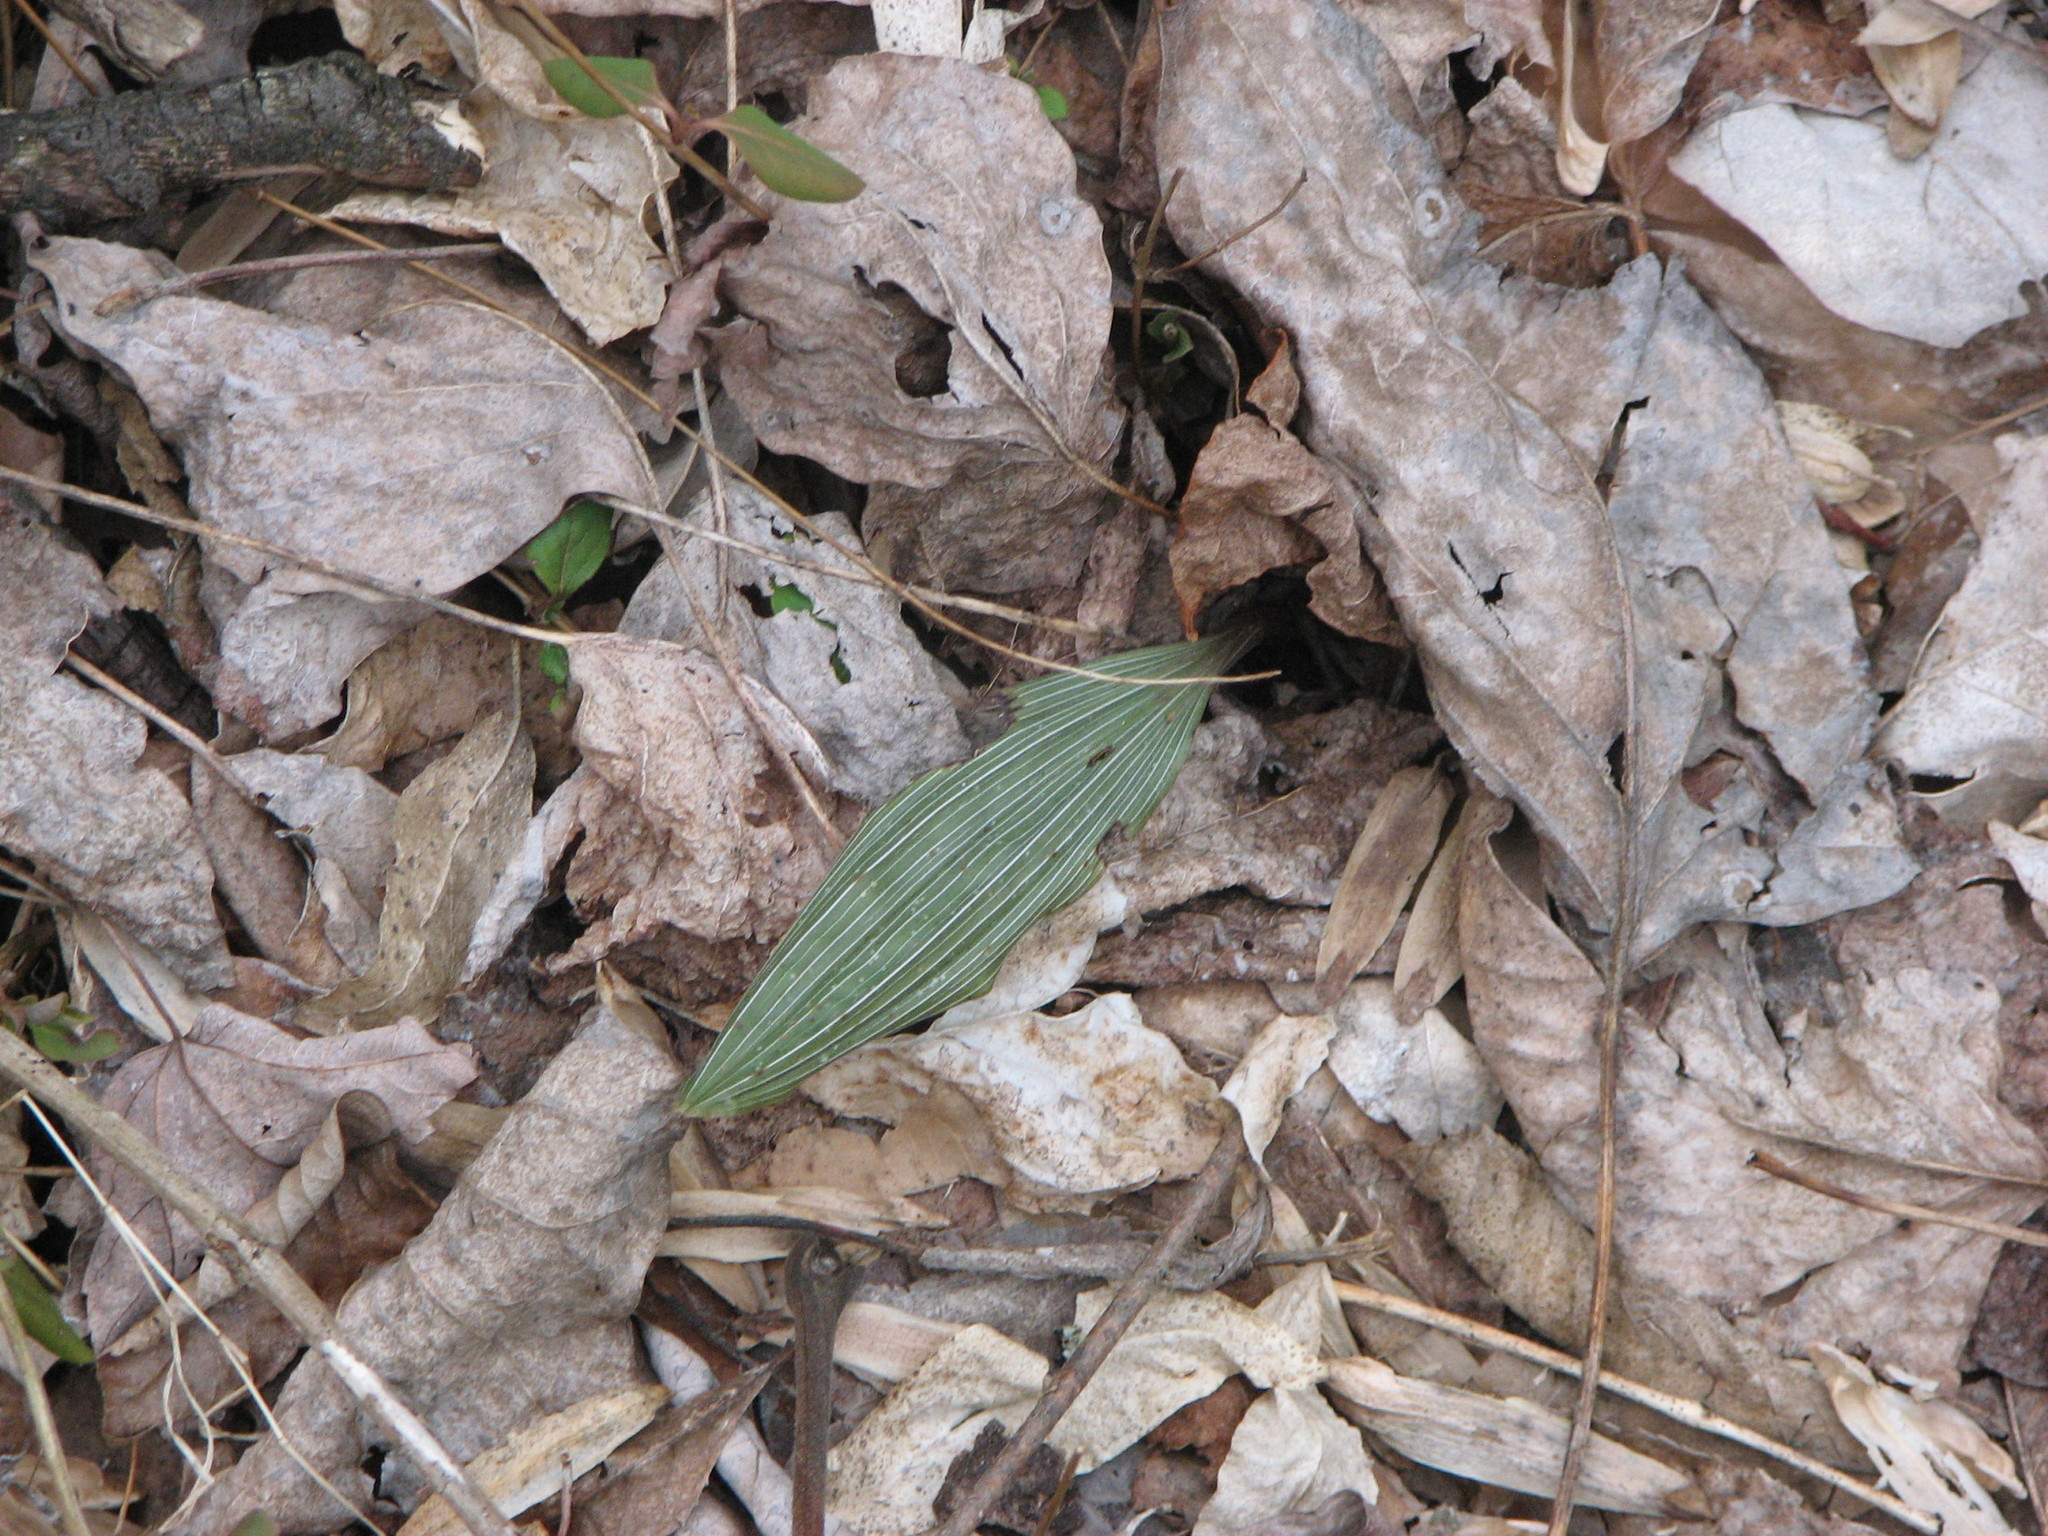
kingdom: Plantae
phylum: Tracheophyta
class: Liliopsida
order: Asparagales
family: Orchidaceae
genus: Aplectrum
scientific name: Aplectrum hyemale
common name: Adam-and-eve
